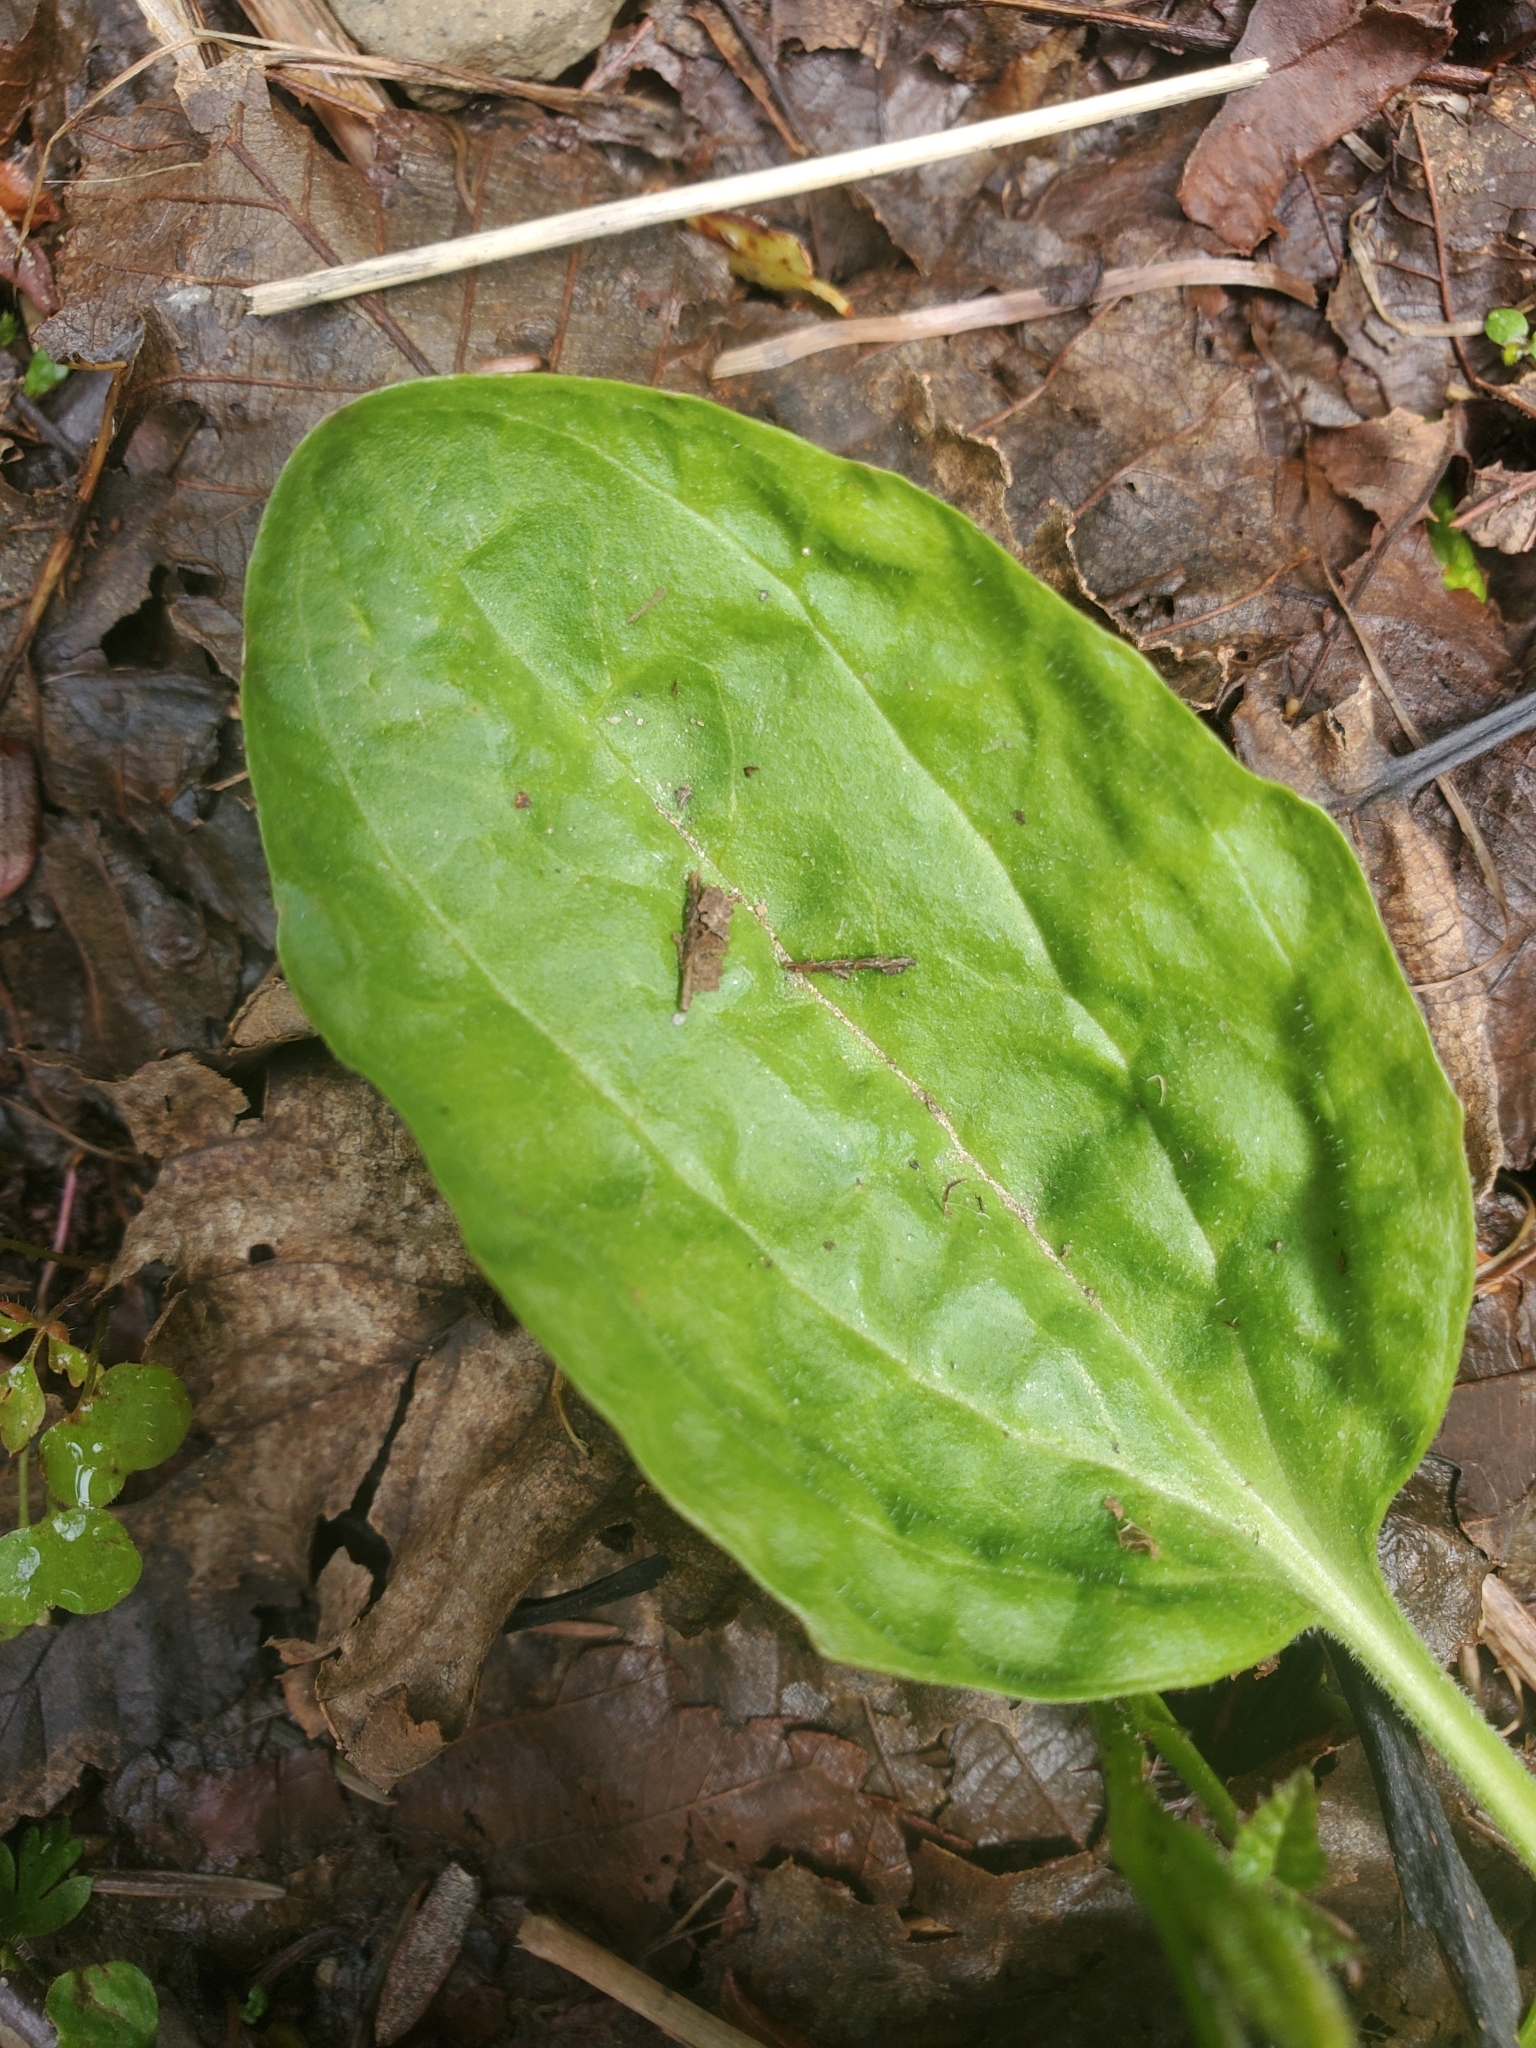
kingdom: Plantae
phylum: Tracheophyta
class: Magnoliopsida
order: Lamiales
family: Plantaginaceae
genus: Plantago
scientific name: Plantago major
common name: Common plantain
